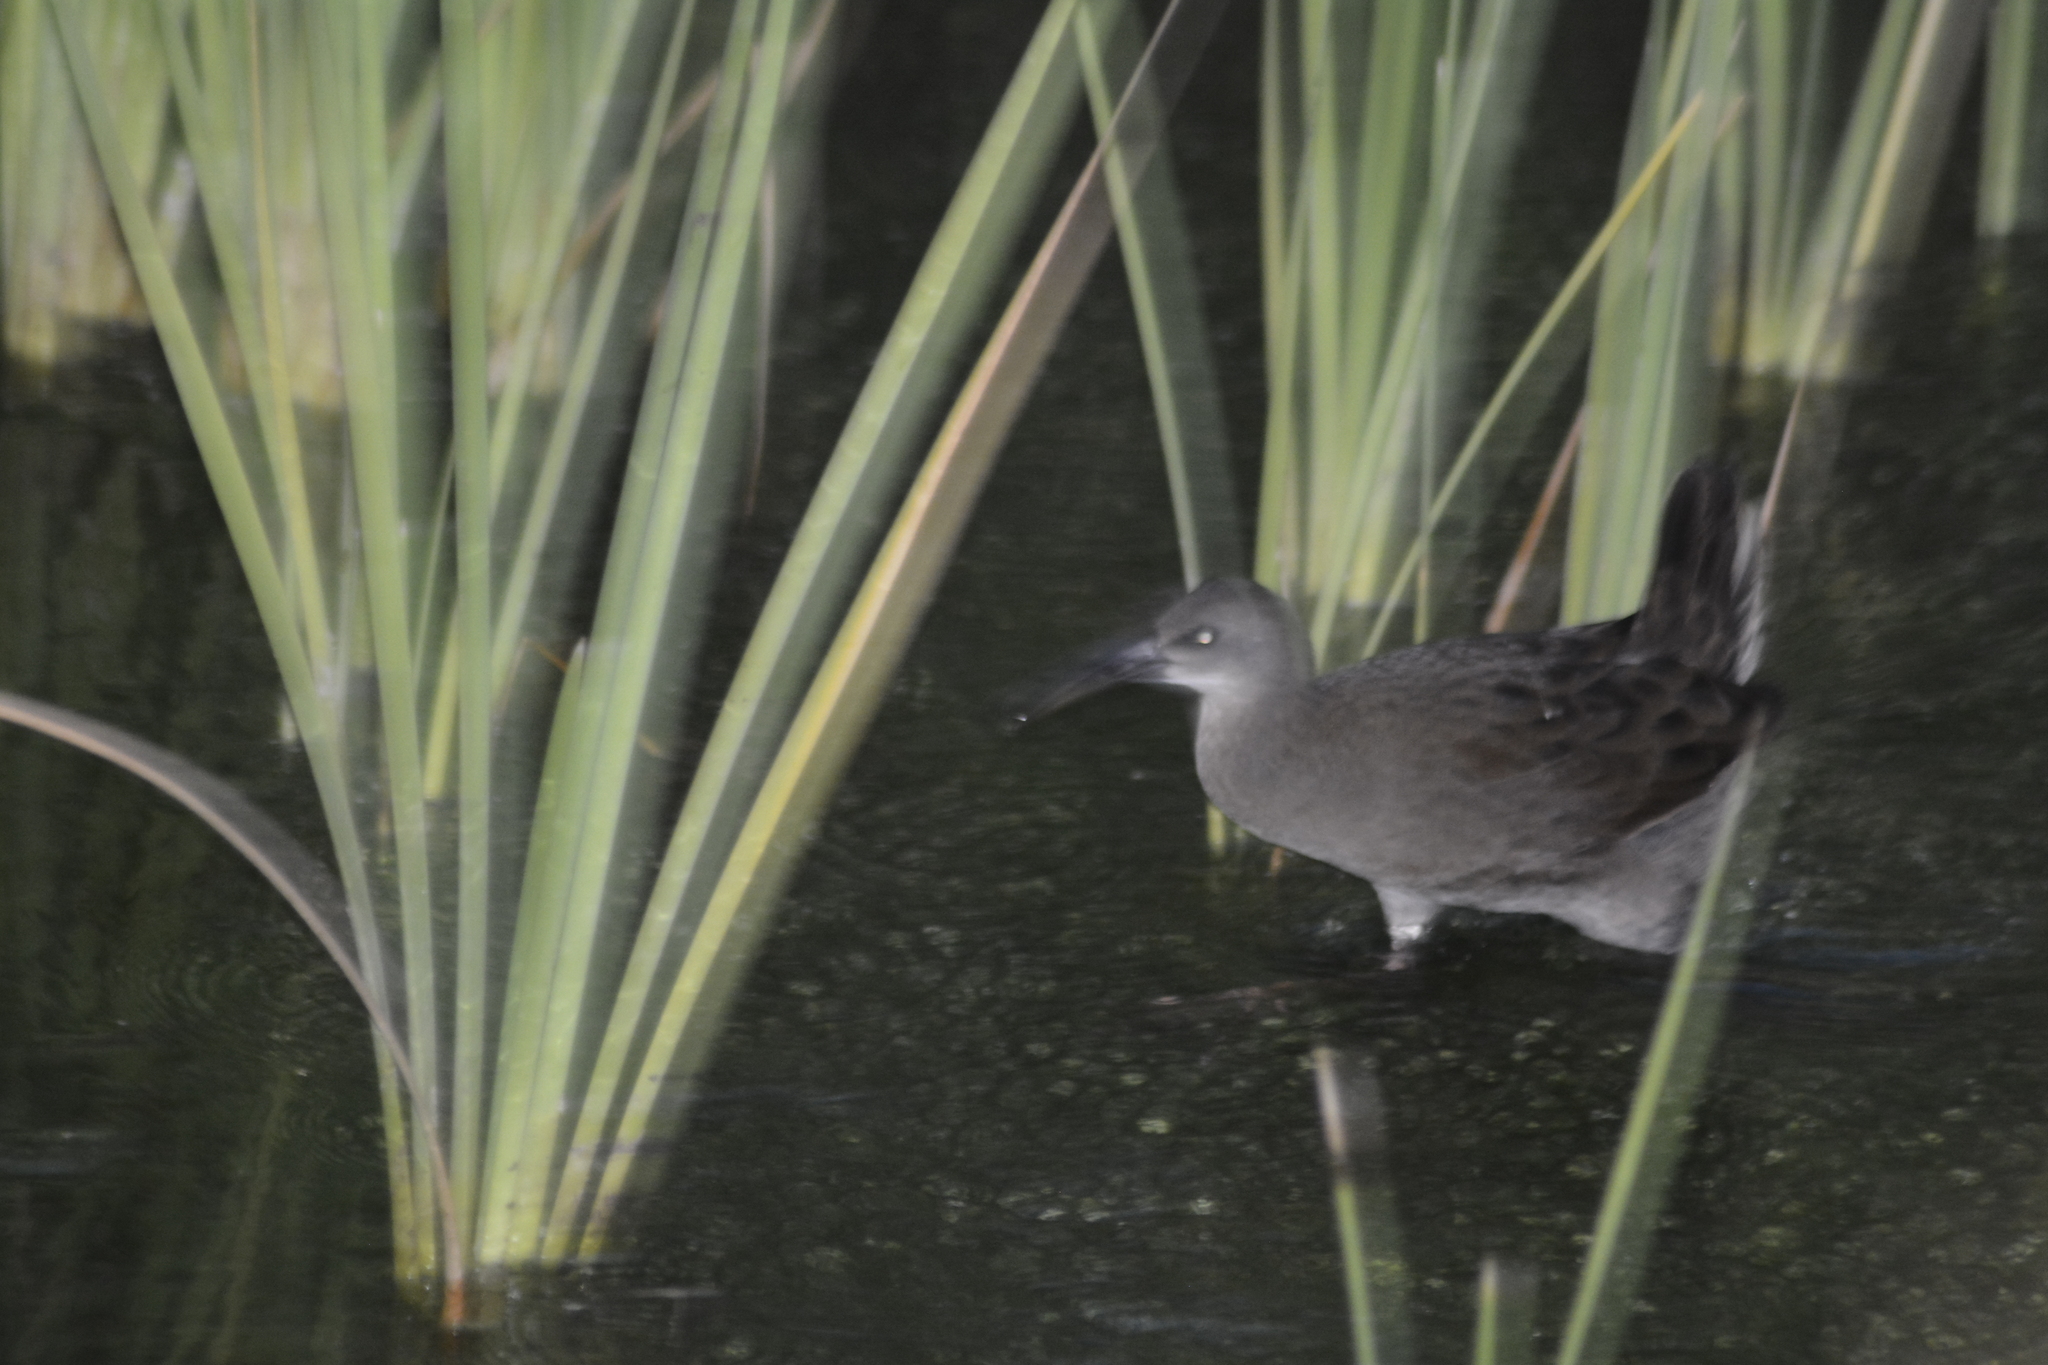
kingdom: Animalia
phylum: Chordata
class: Aves
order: Gruiformes
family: Rallidae
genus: Pardirallus
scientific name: Pardirallus sanguinolentus
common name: Plumbeous rail
